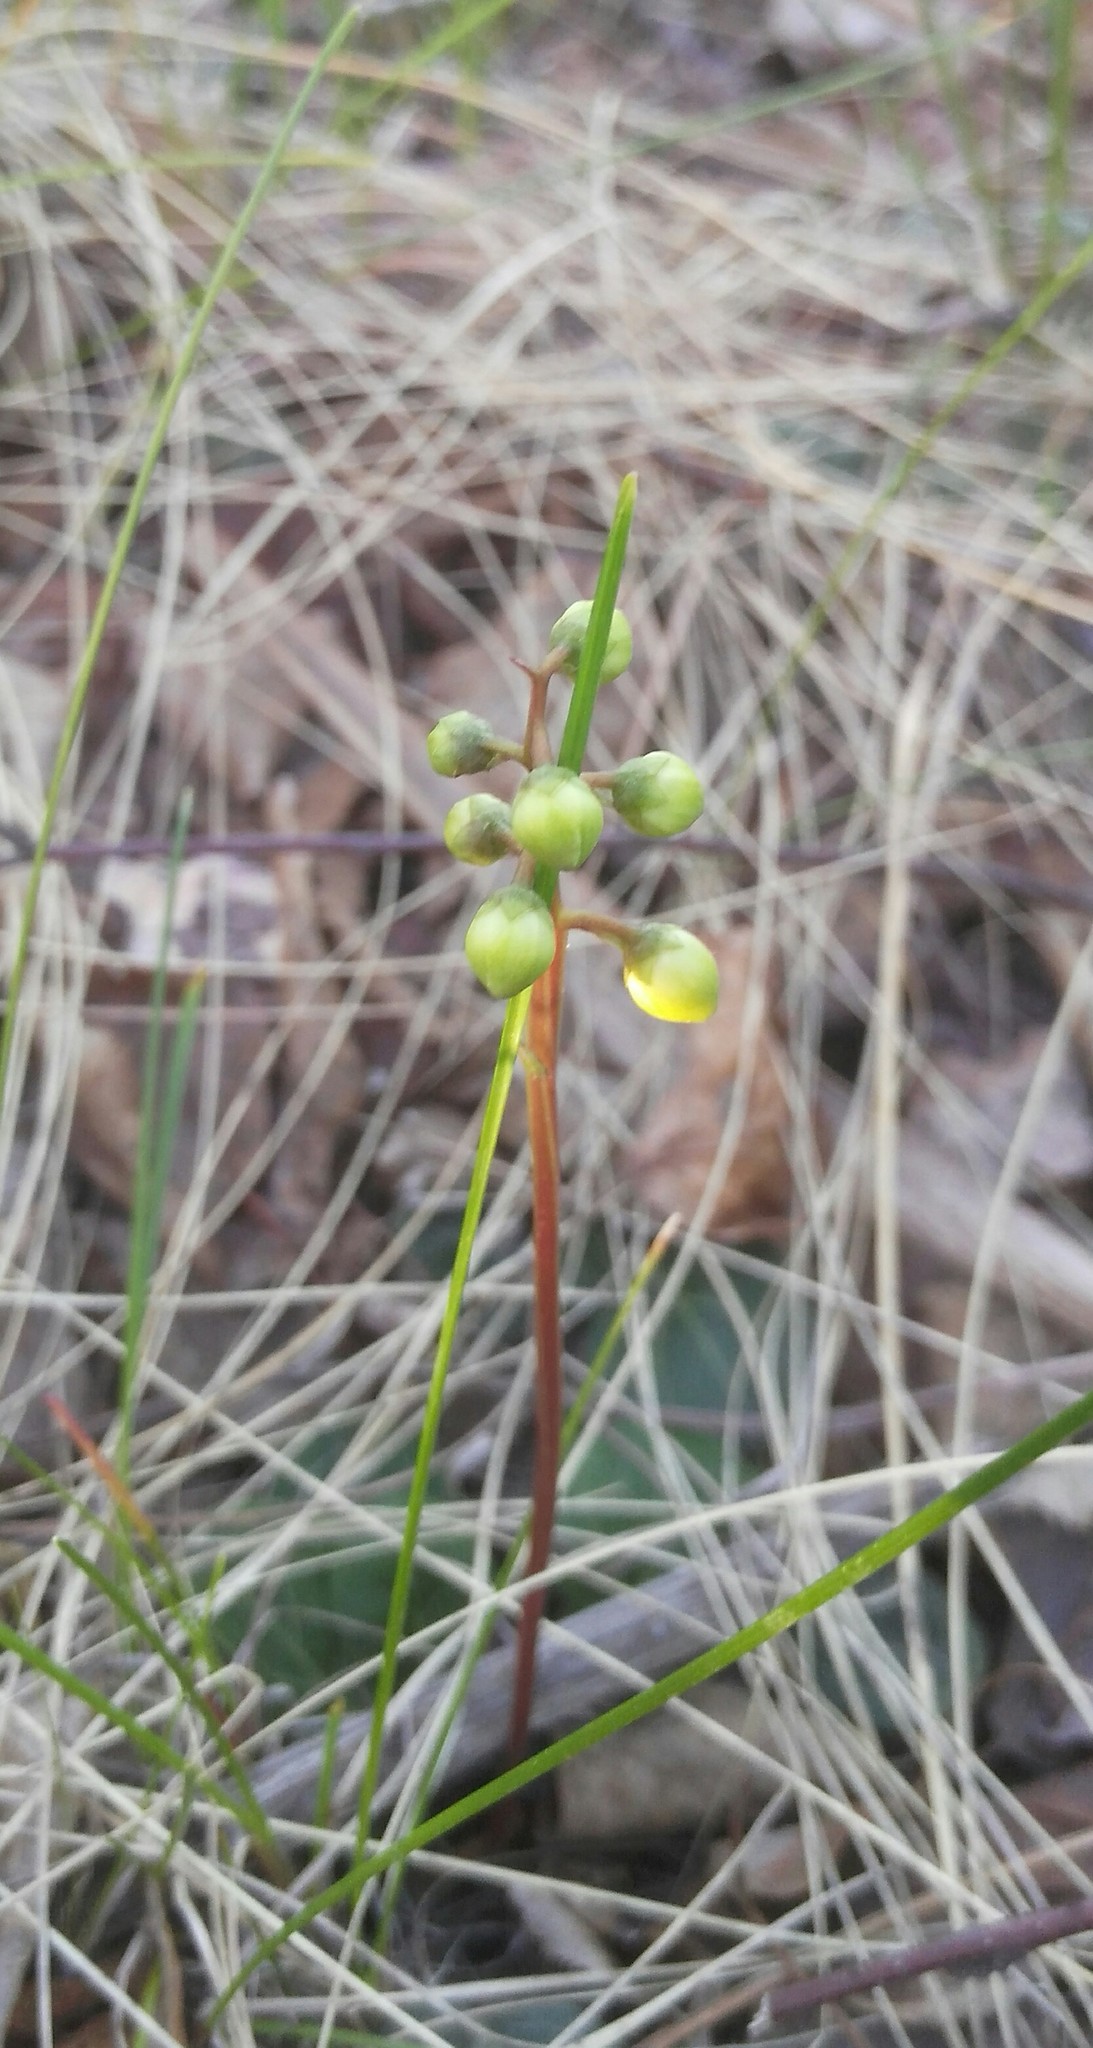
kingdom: Plantae
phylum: Tracheophyta
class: Magnoliopsida
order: Ericales
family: Ericaceae
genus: Pyrola
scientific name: Pyrola chlorantha
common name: Green wintergreen
